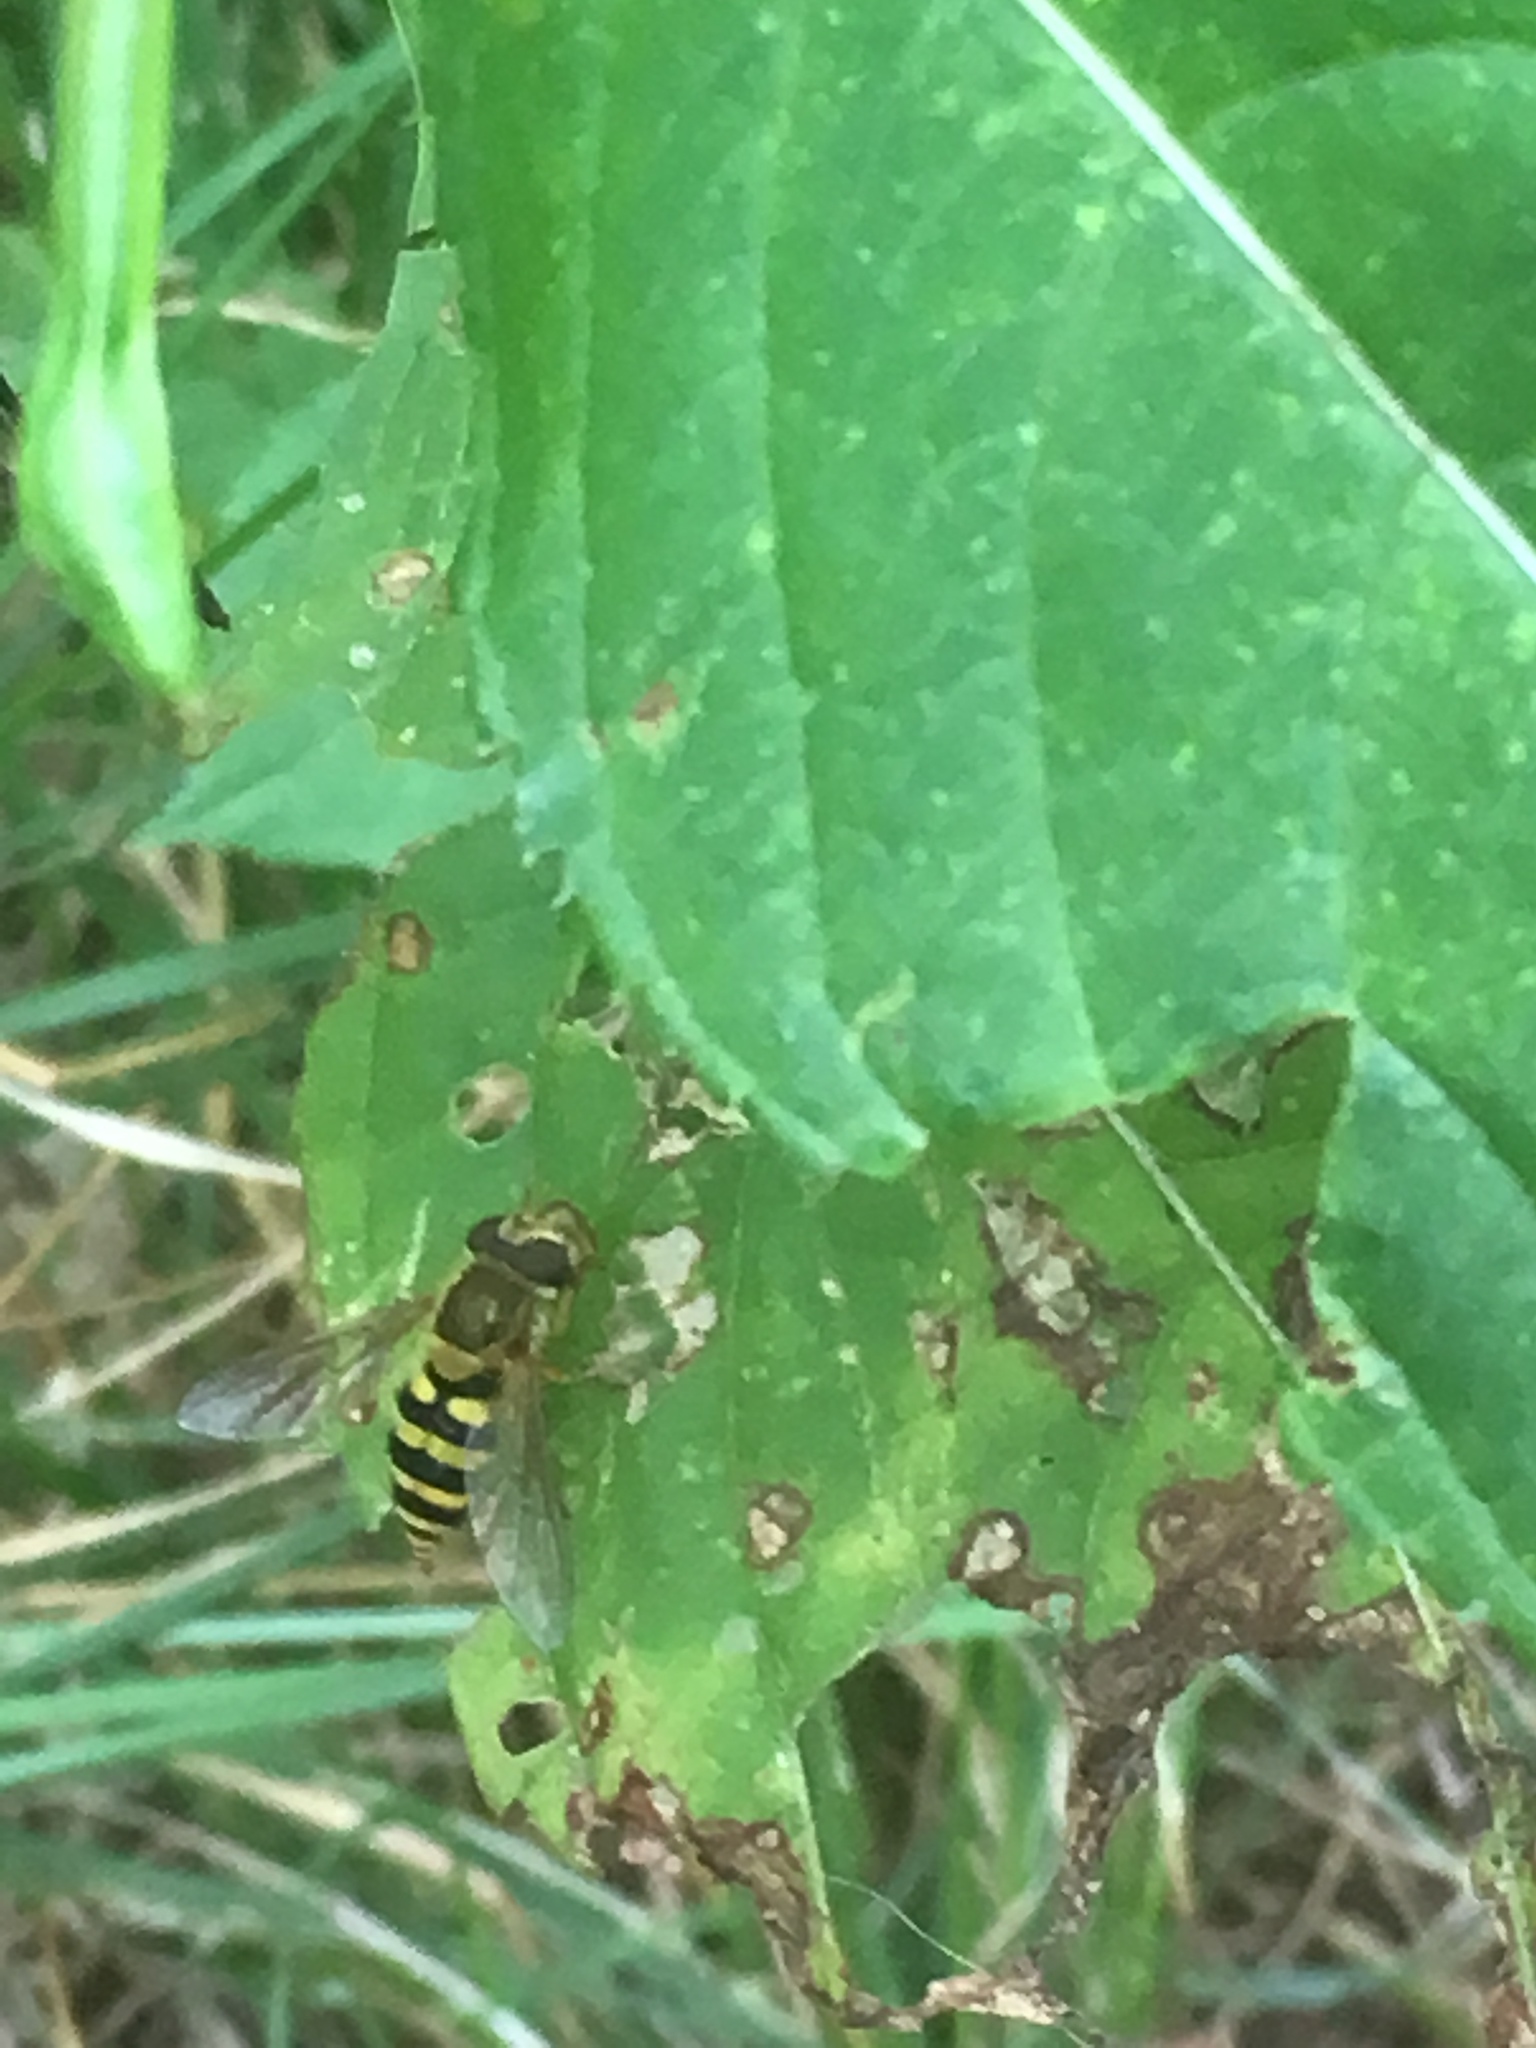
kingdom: Animalia
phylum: Arthropoda
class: Insecta
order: Diptera
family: Syrphidae
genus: Syrphus
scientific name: Syrphus
